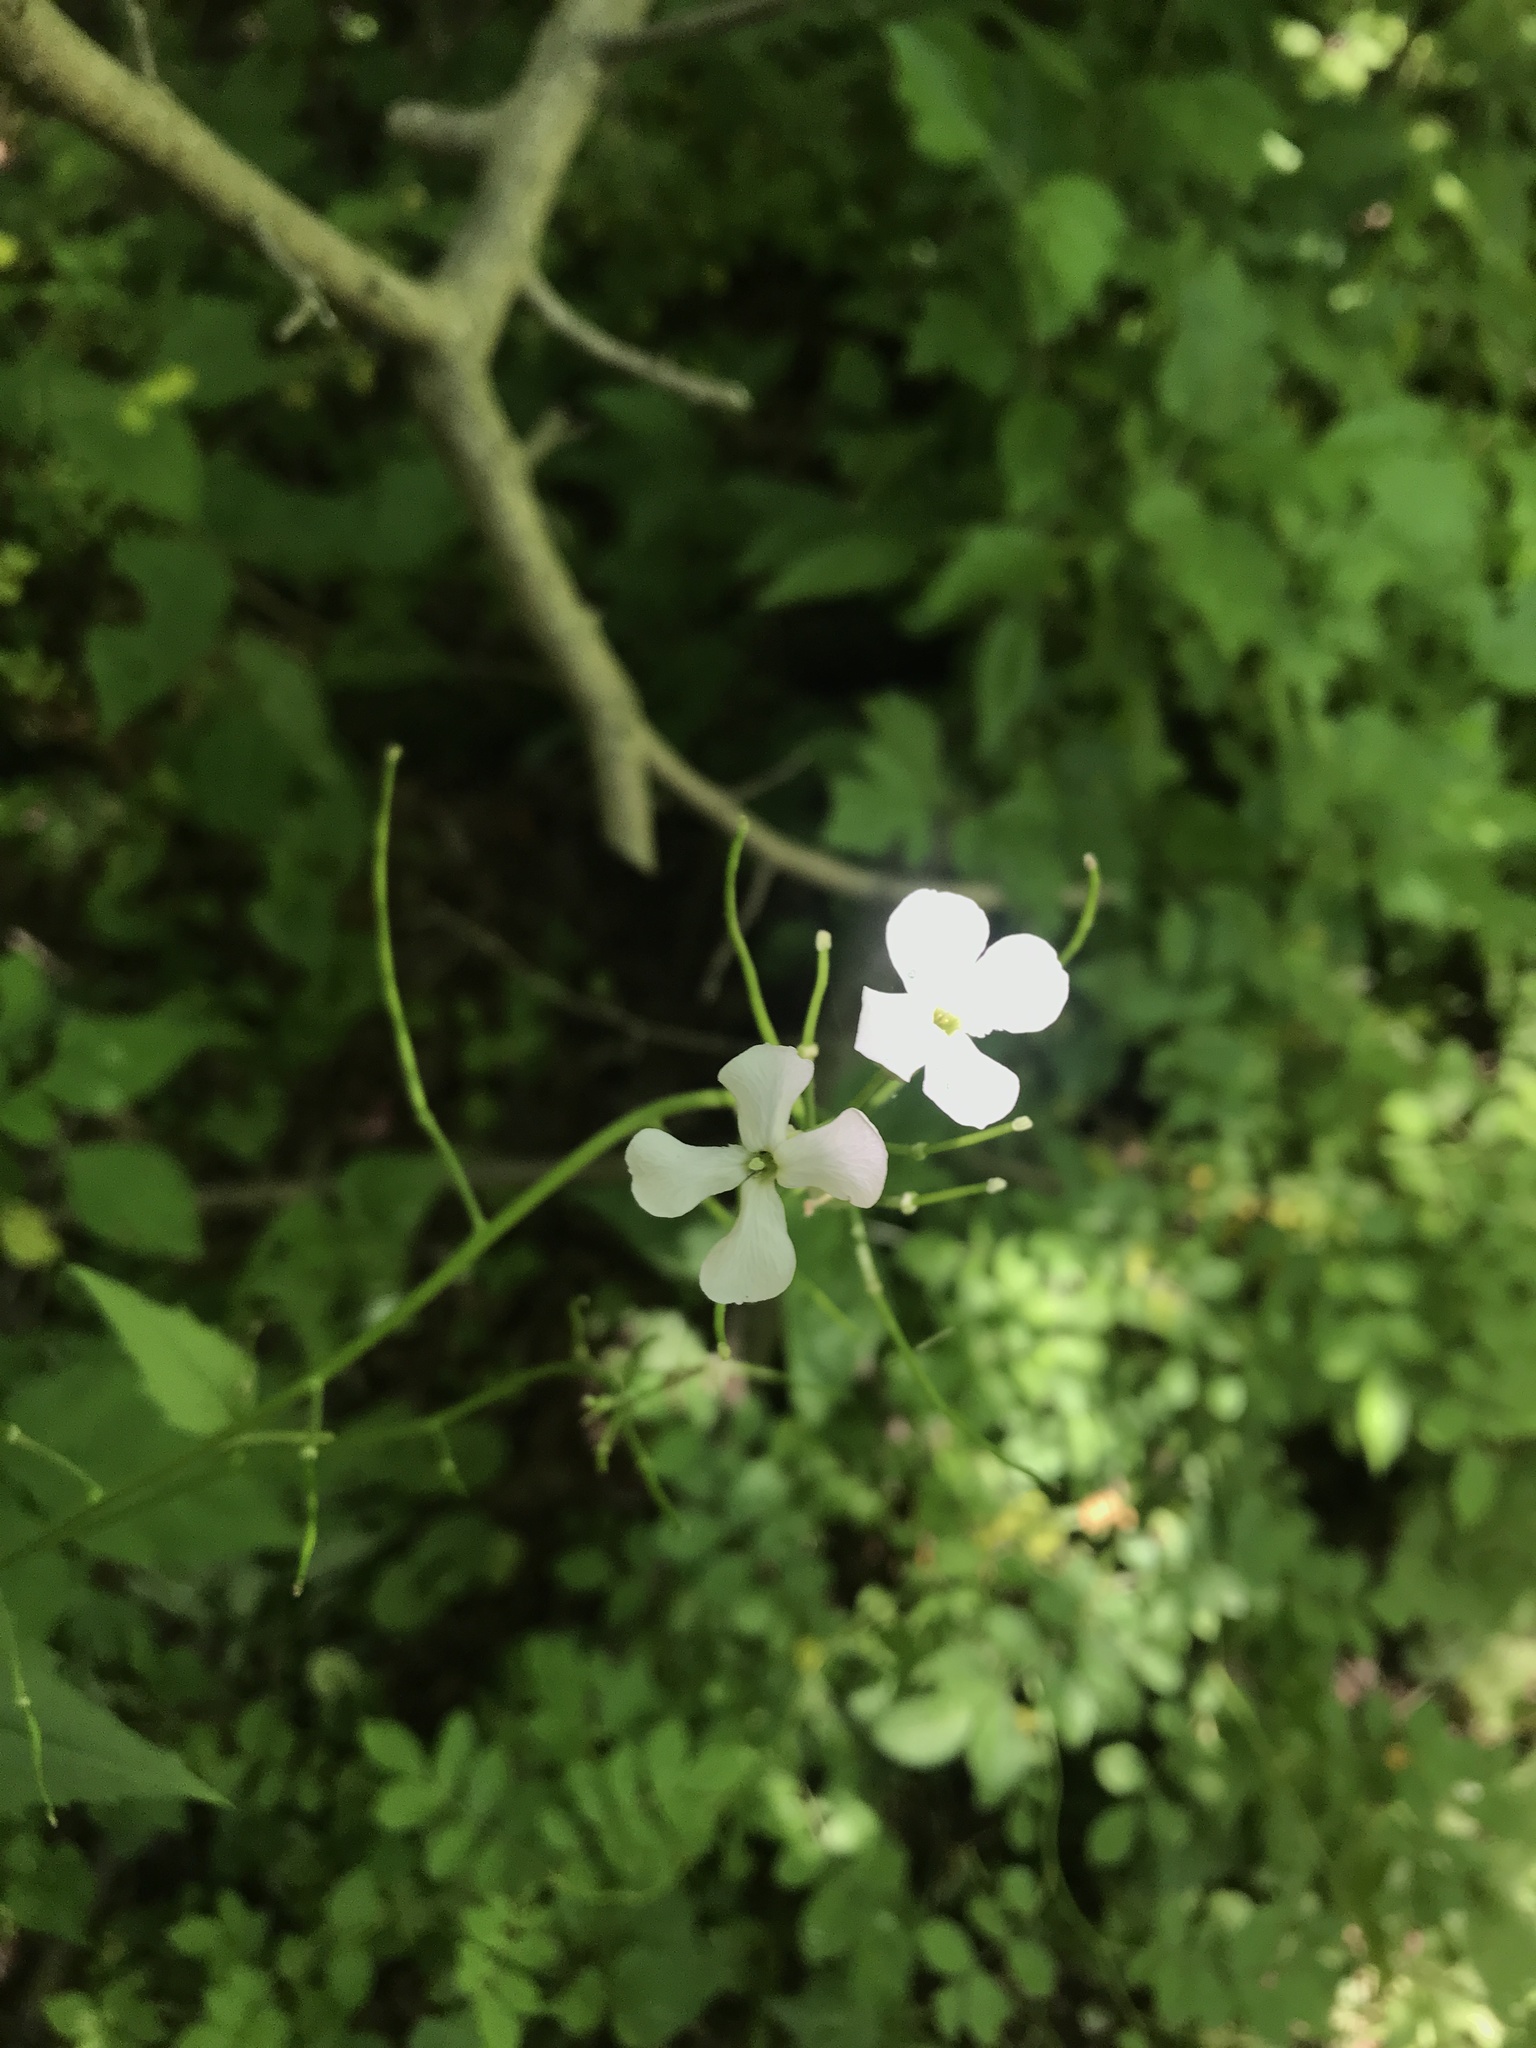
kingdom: Plantae
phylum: Tracheophyta
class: Magnoliopsida
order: Brassicales
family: Brassicaceae
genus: Hesperis
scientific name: Hesperis matronalis
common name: Dame's-violet
